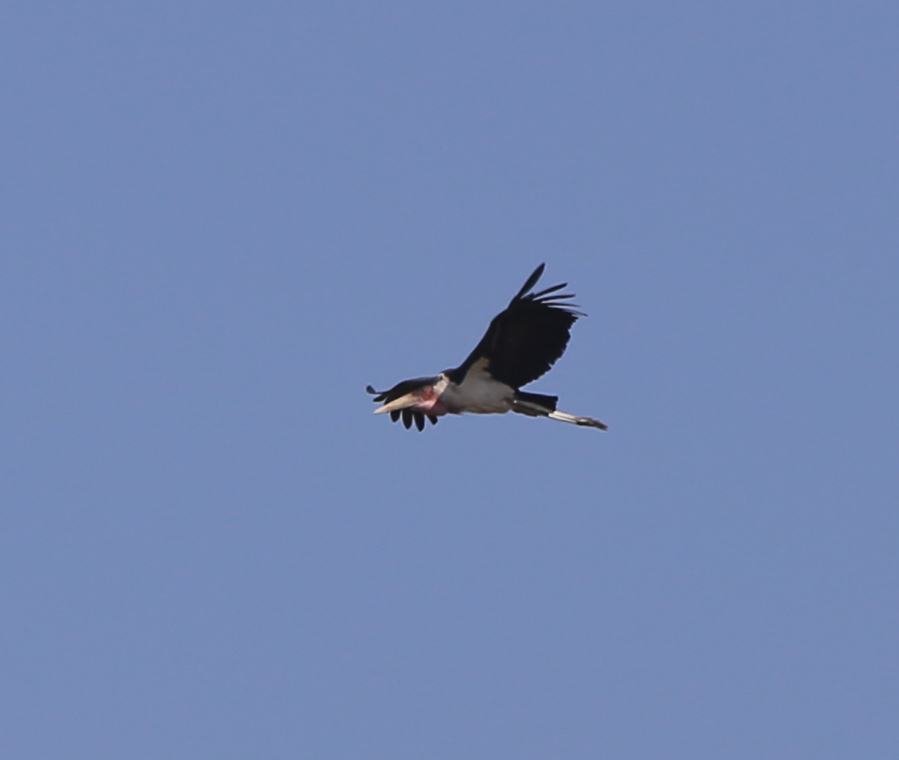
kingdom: Animalia
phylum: Chordata
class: Aves
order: Ciconiiformes
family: Ciconiidae
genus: Leptoptilos
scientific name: Leptoptilos crumenifer
